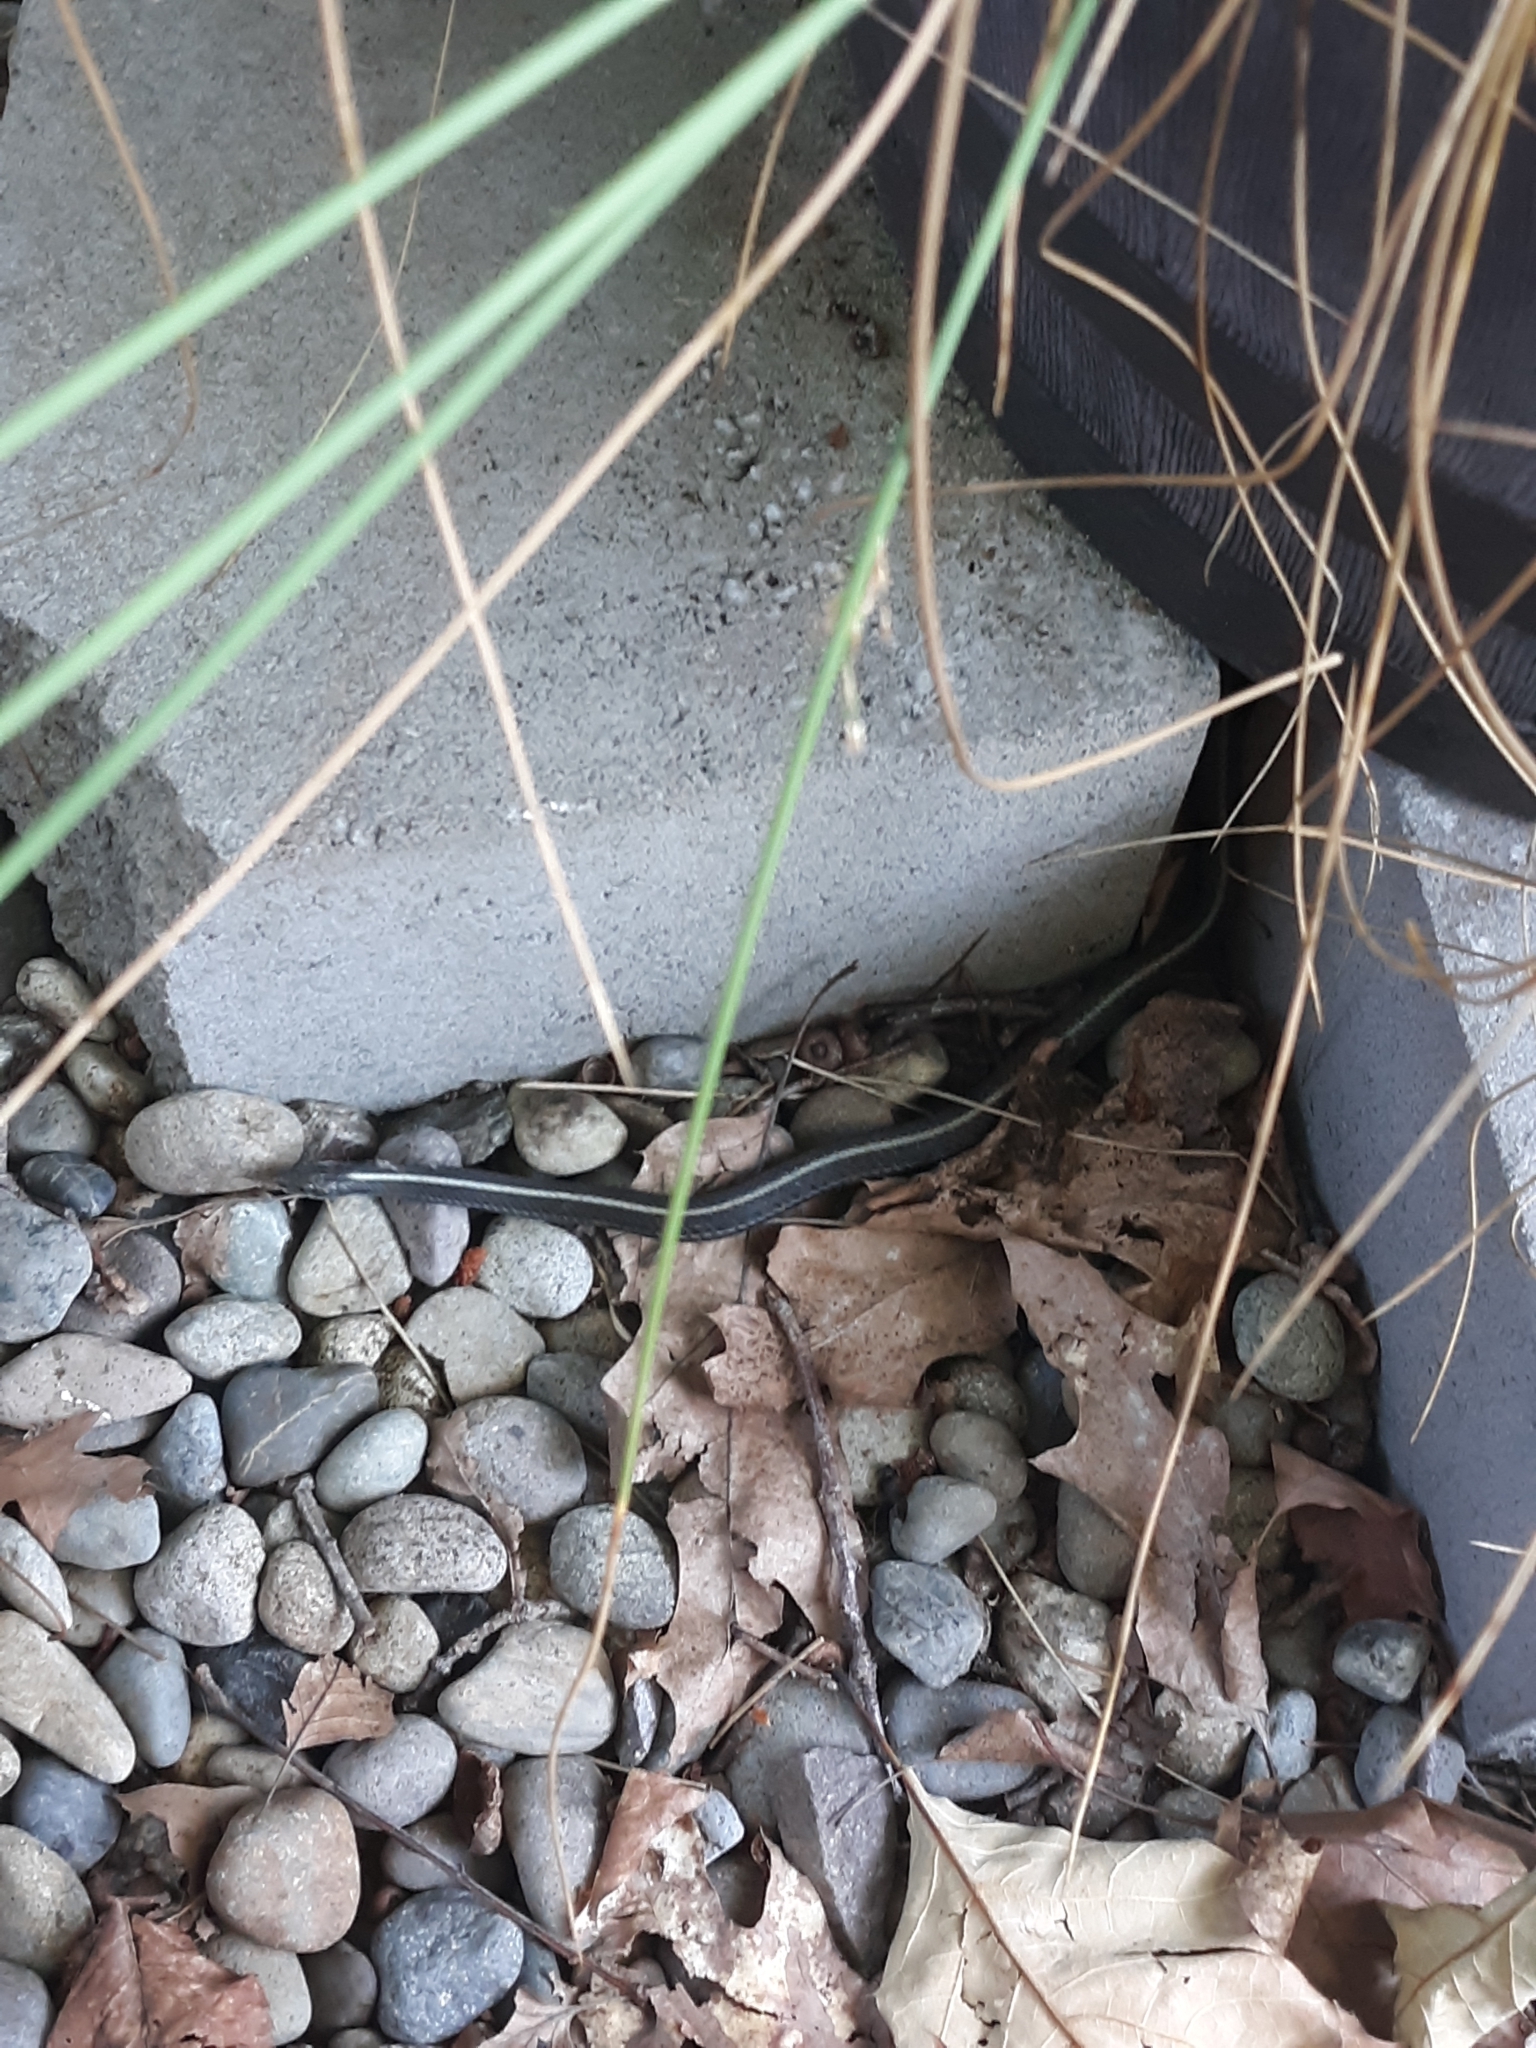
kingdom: Animalia
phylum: Chordata
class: Squamata
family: Colubridae
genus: Thamnophis
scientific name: Thamnophis ordinoides
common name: Northwestern garter snake
